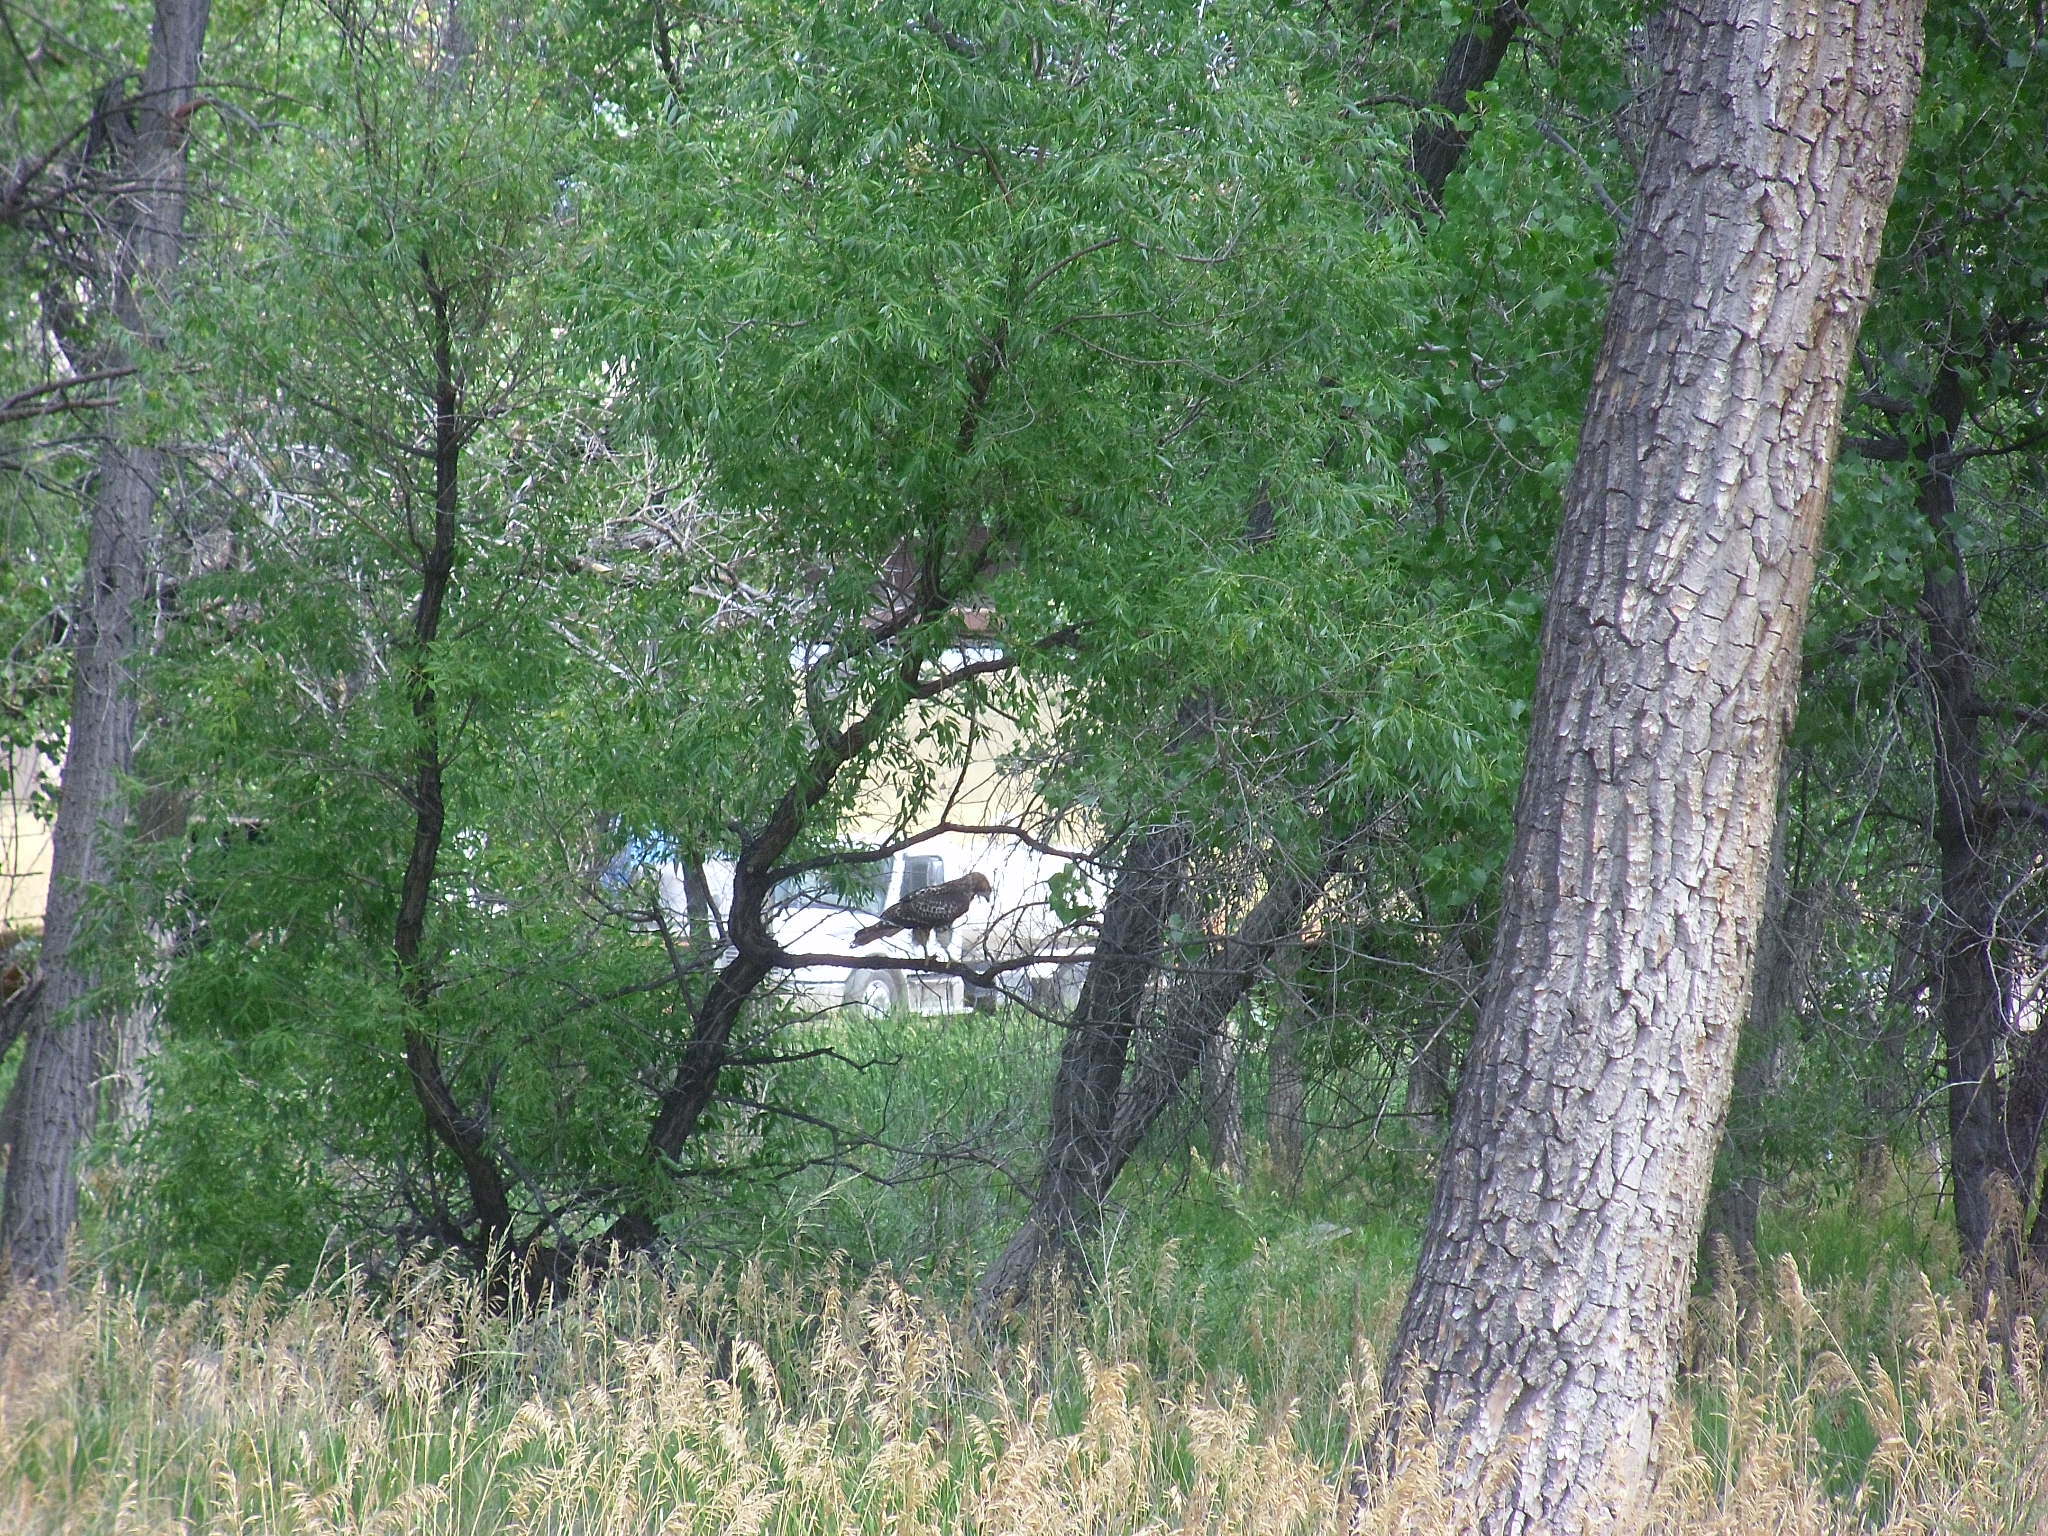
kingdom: Animalia
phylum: Chordata
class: Aves
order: Accipitriformes
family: Accipitridae
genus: Buteo
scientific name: Buteo jamaicensis
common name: Red-tailed hawk
